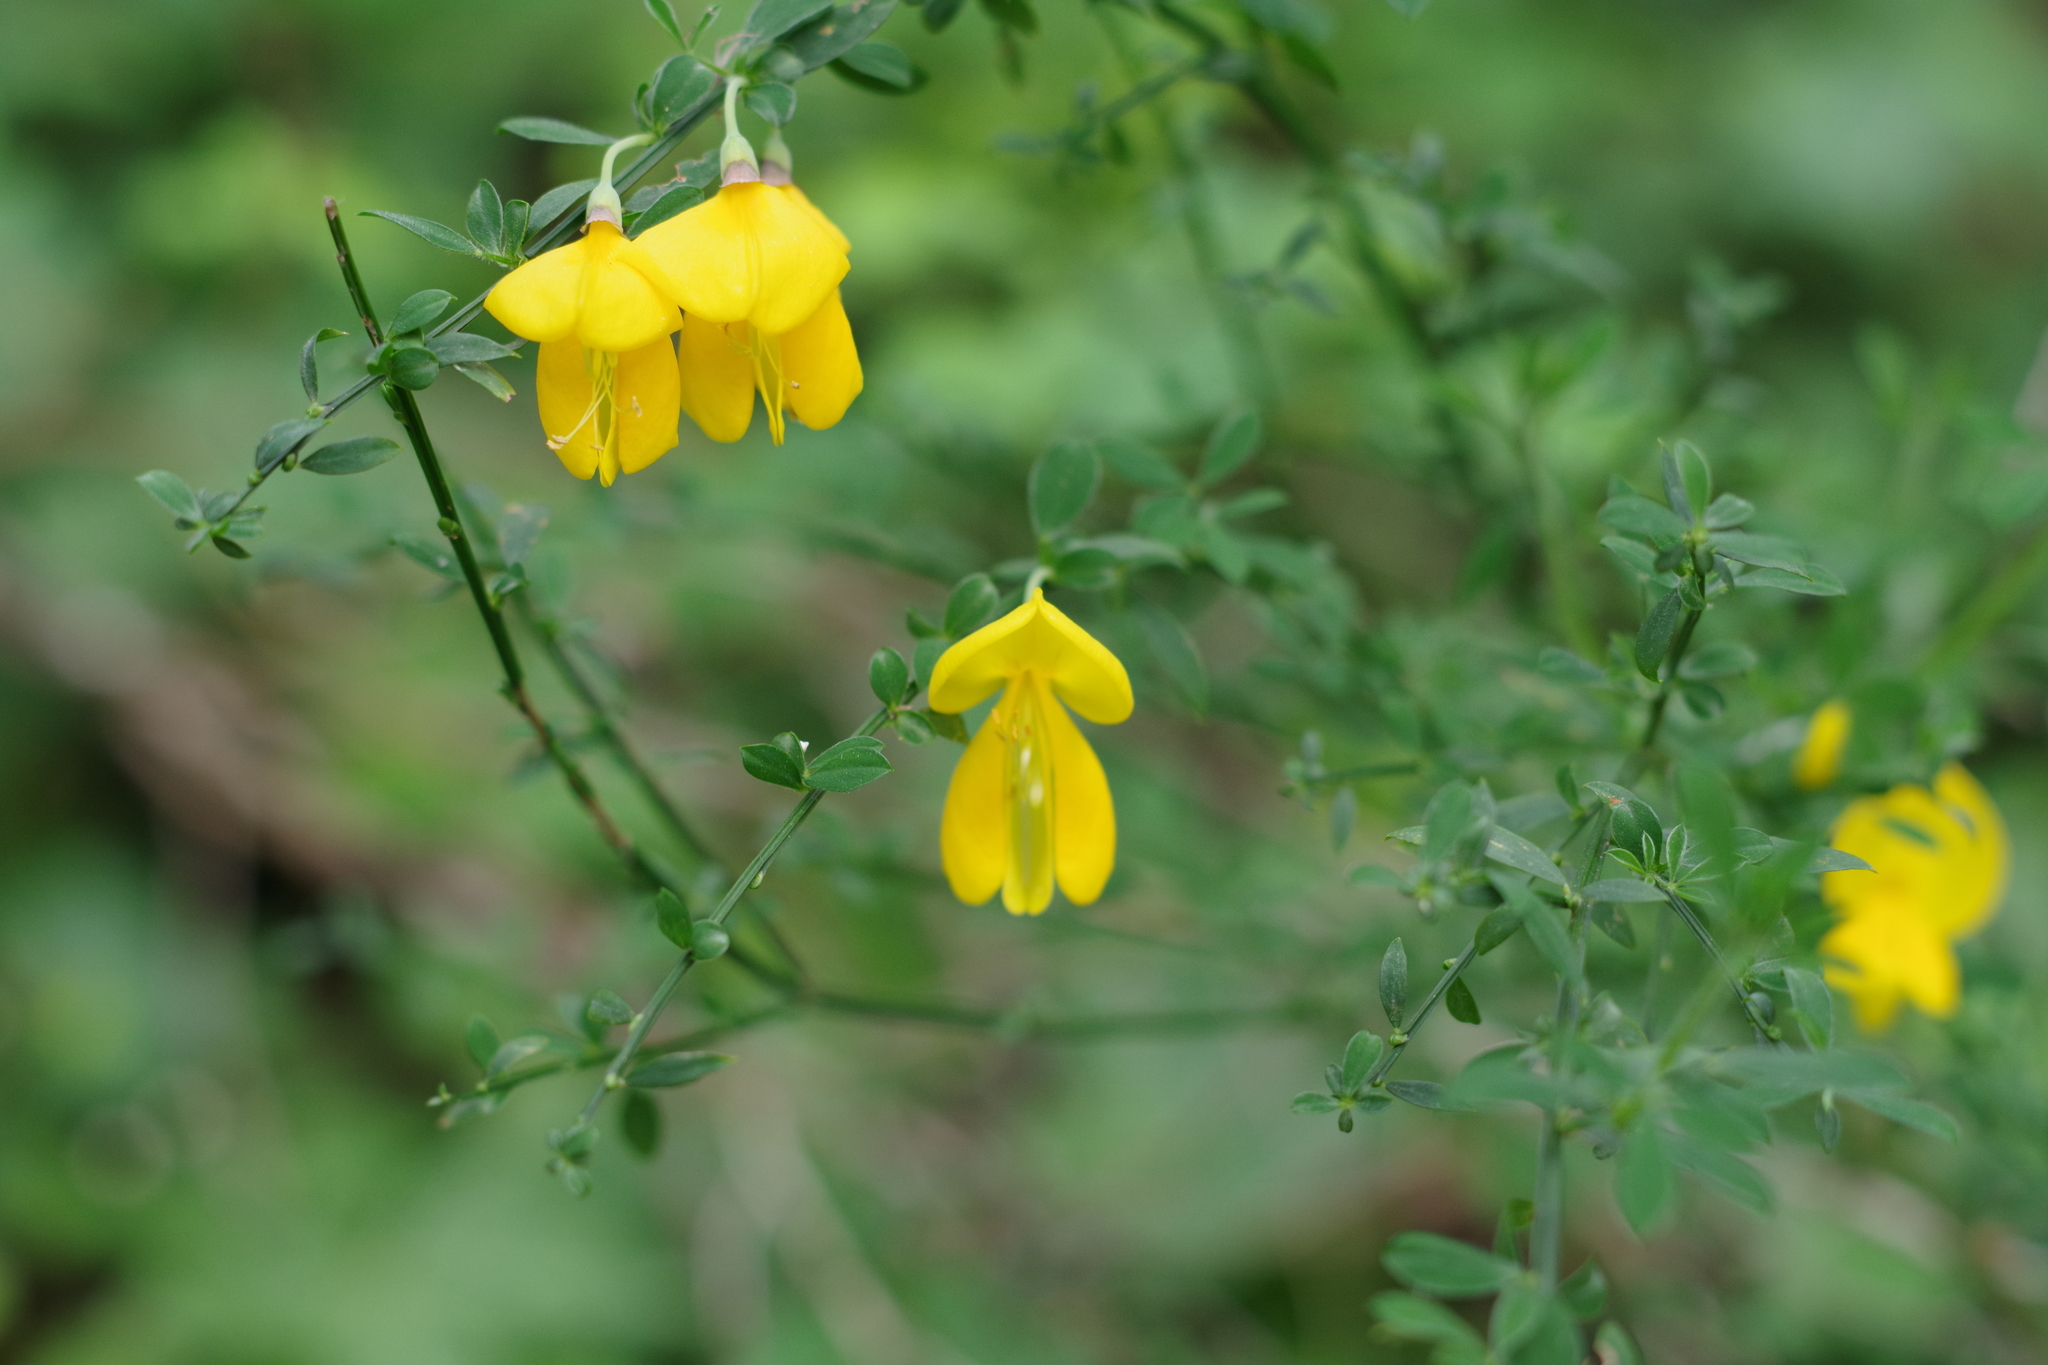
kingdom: Plantae
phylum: Tracheophyta
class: Magnoliopsida
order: Fabales
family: Fabaceae
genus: Cytisus
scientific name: Cytisus scoparius
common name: Scotch broom
